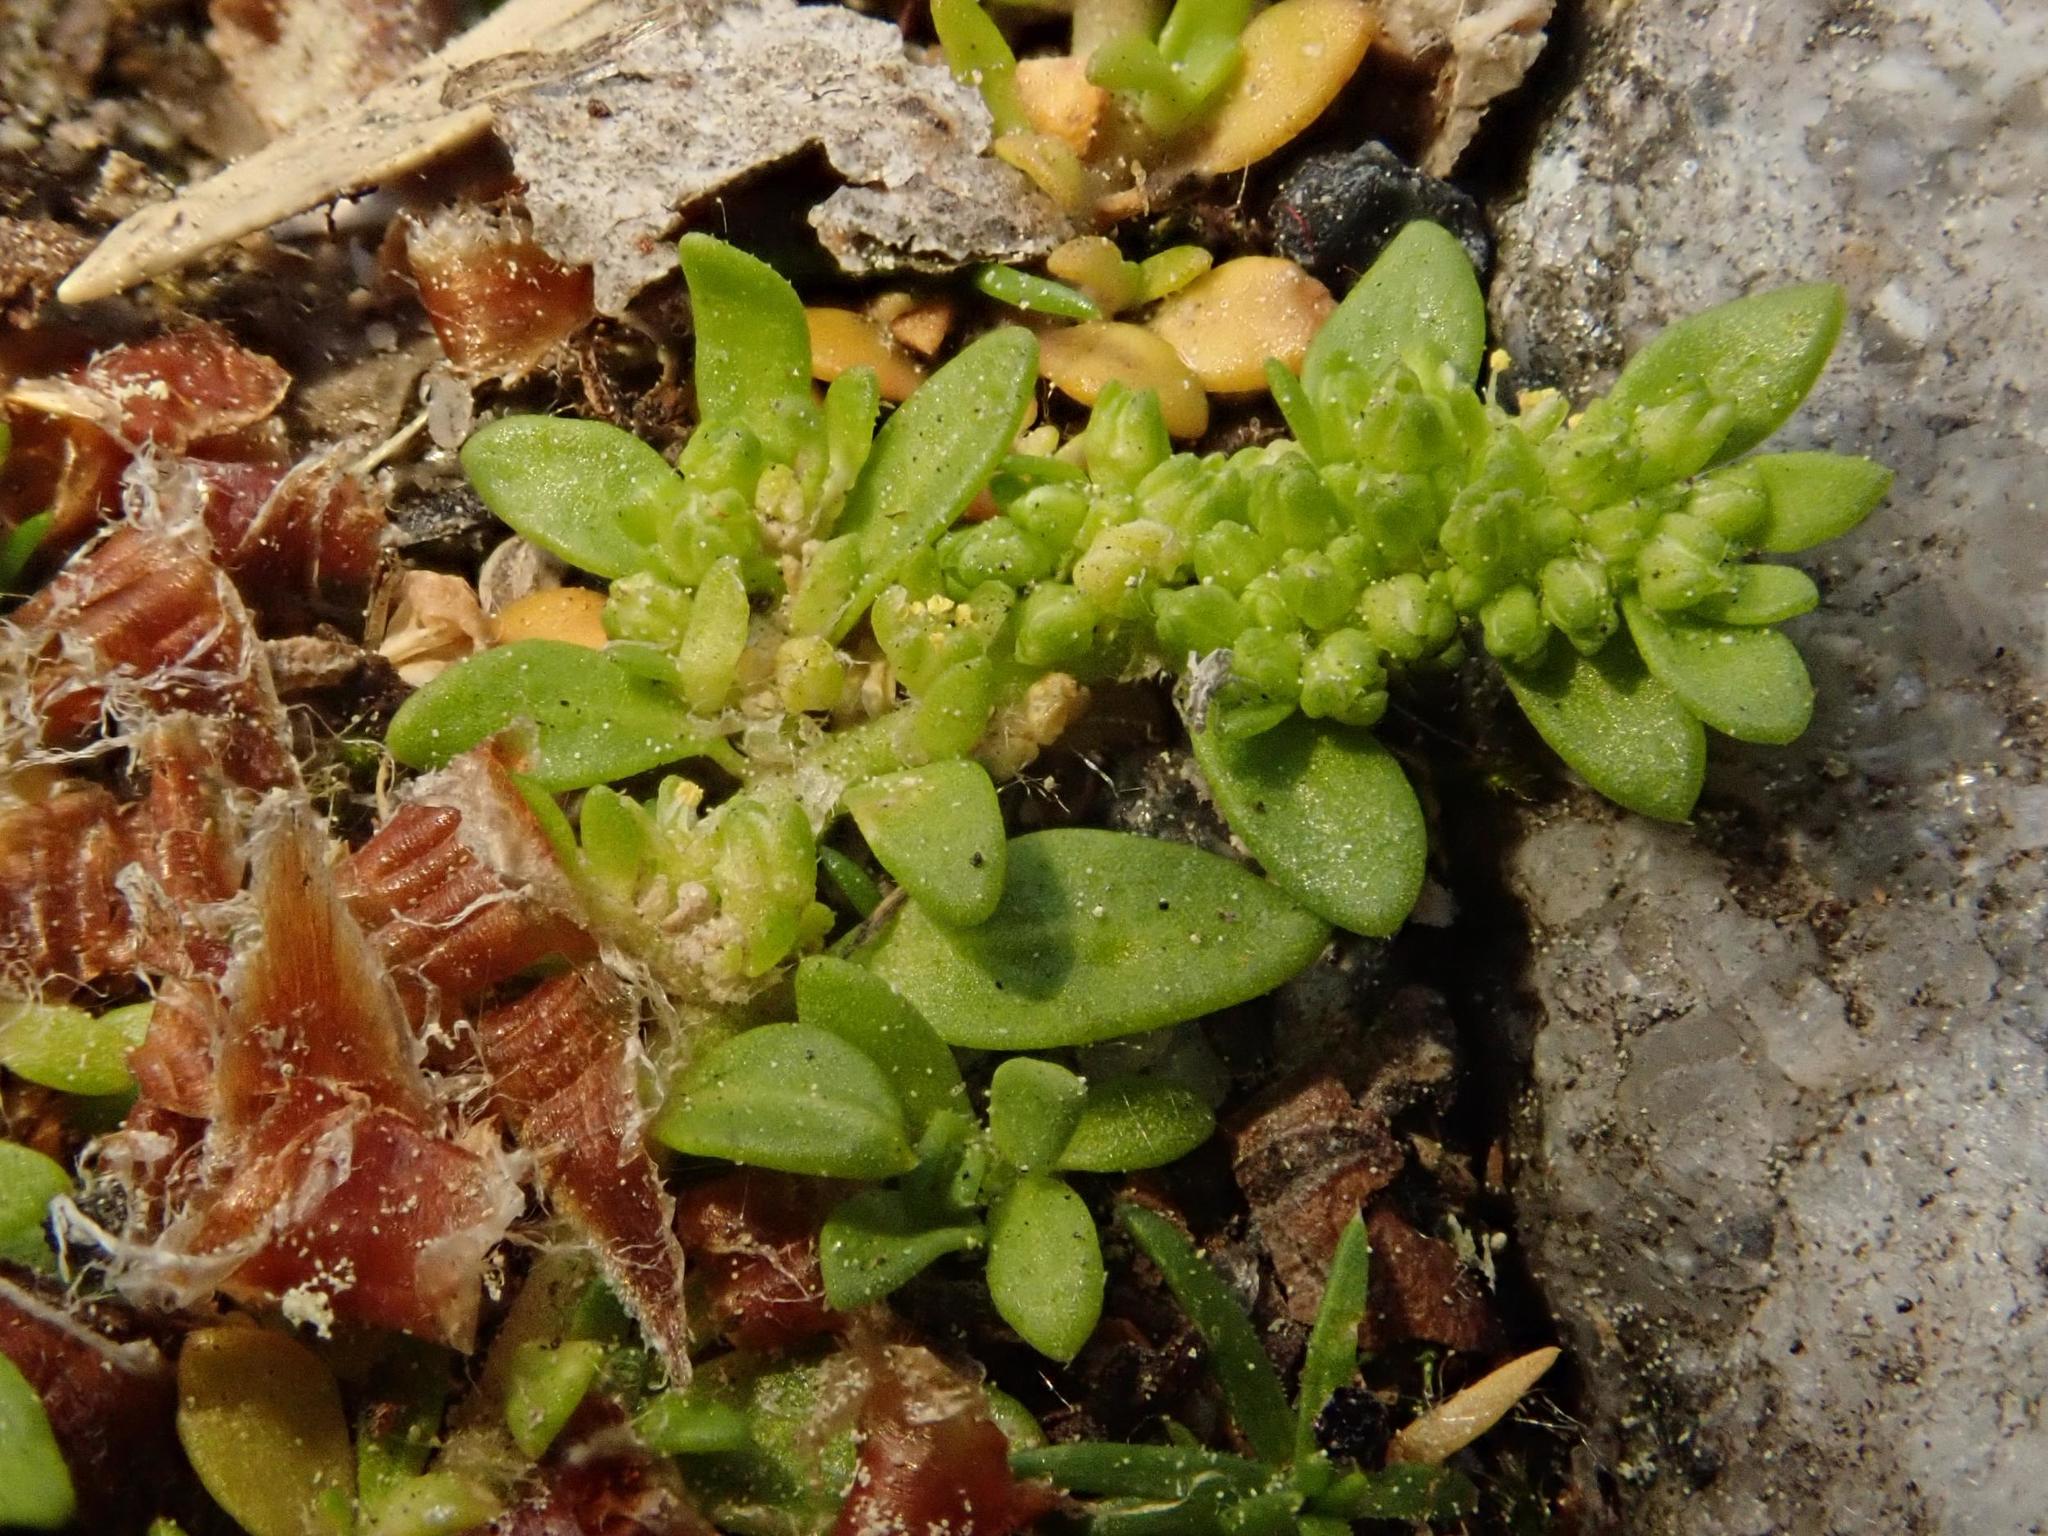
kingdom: Plantae
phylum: Tracheophyta
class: Magnoliopsida
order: Caryophyllales
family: Caryophyllaceae
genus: Herniaria
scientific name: Herniaria glabra
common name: Smooth rupturewort
